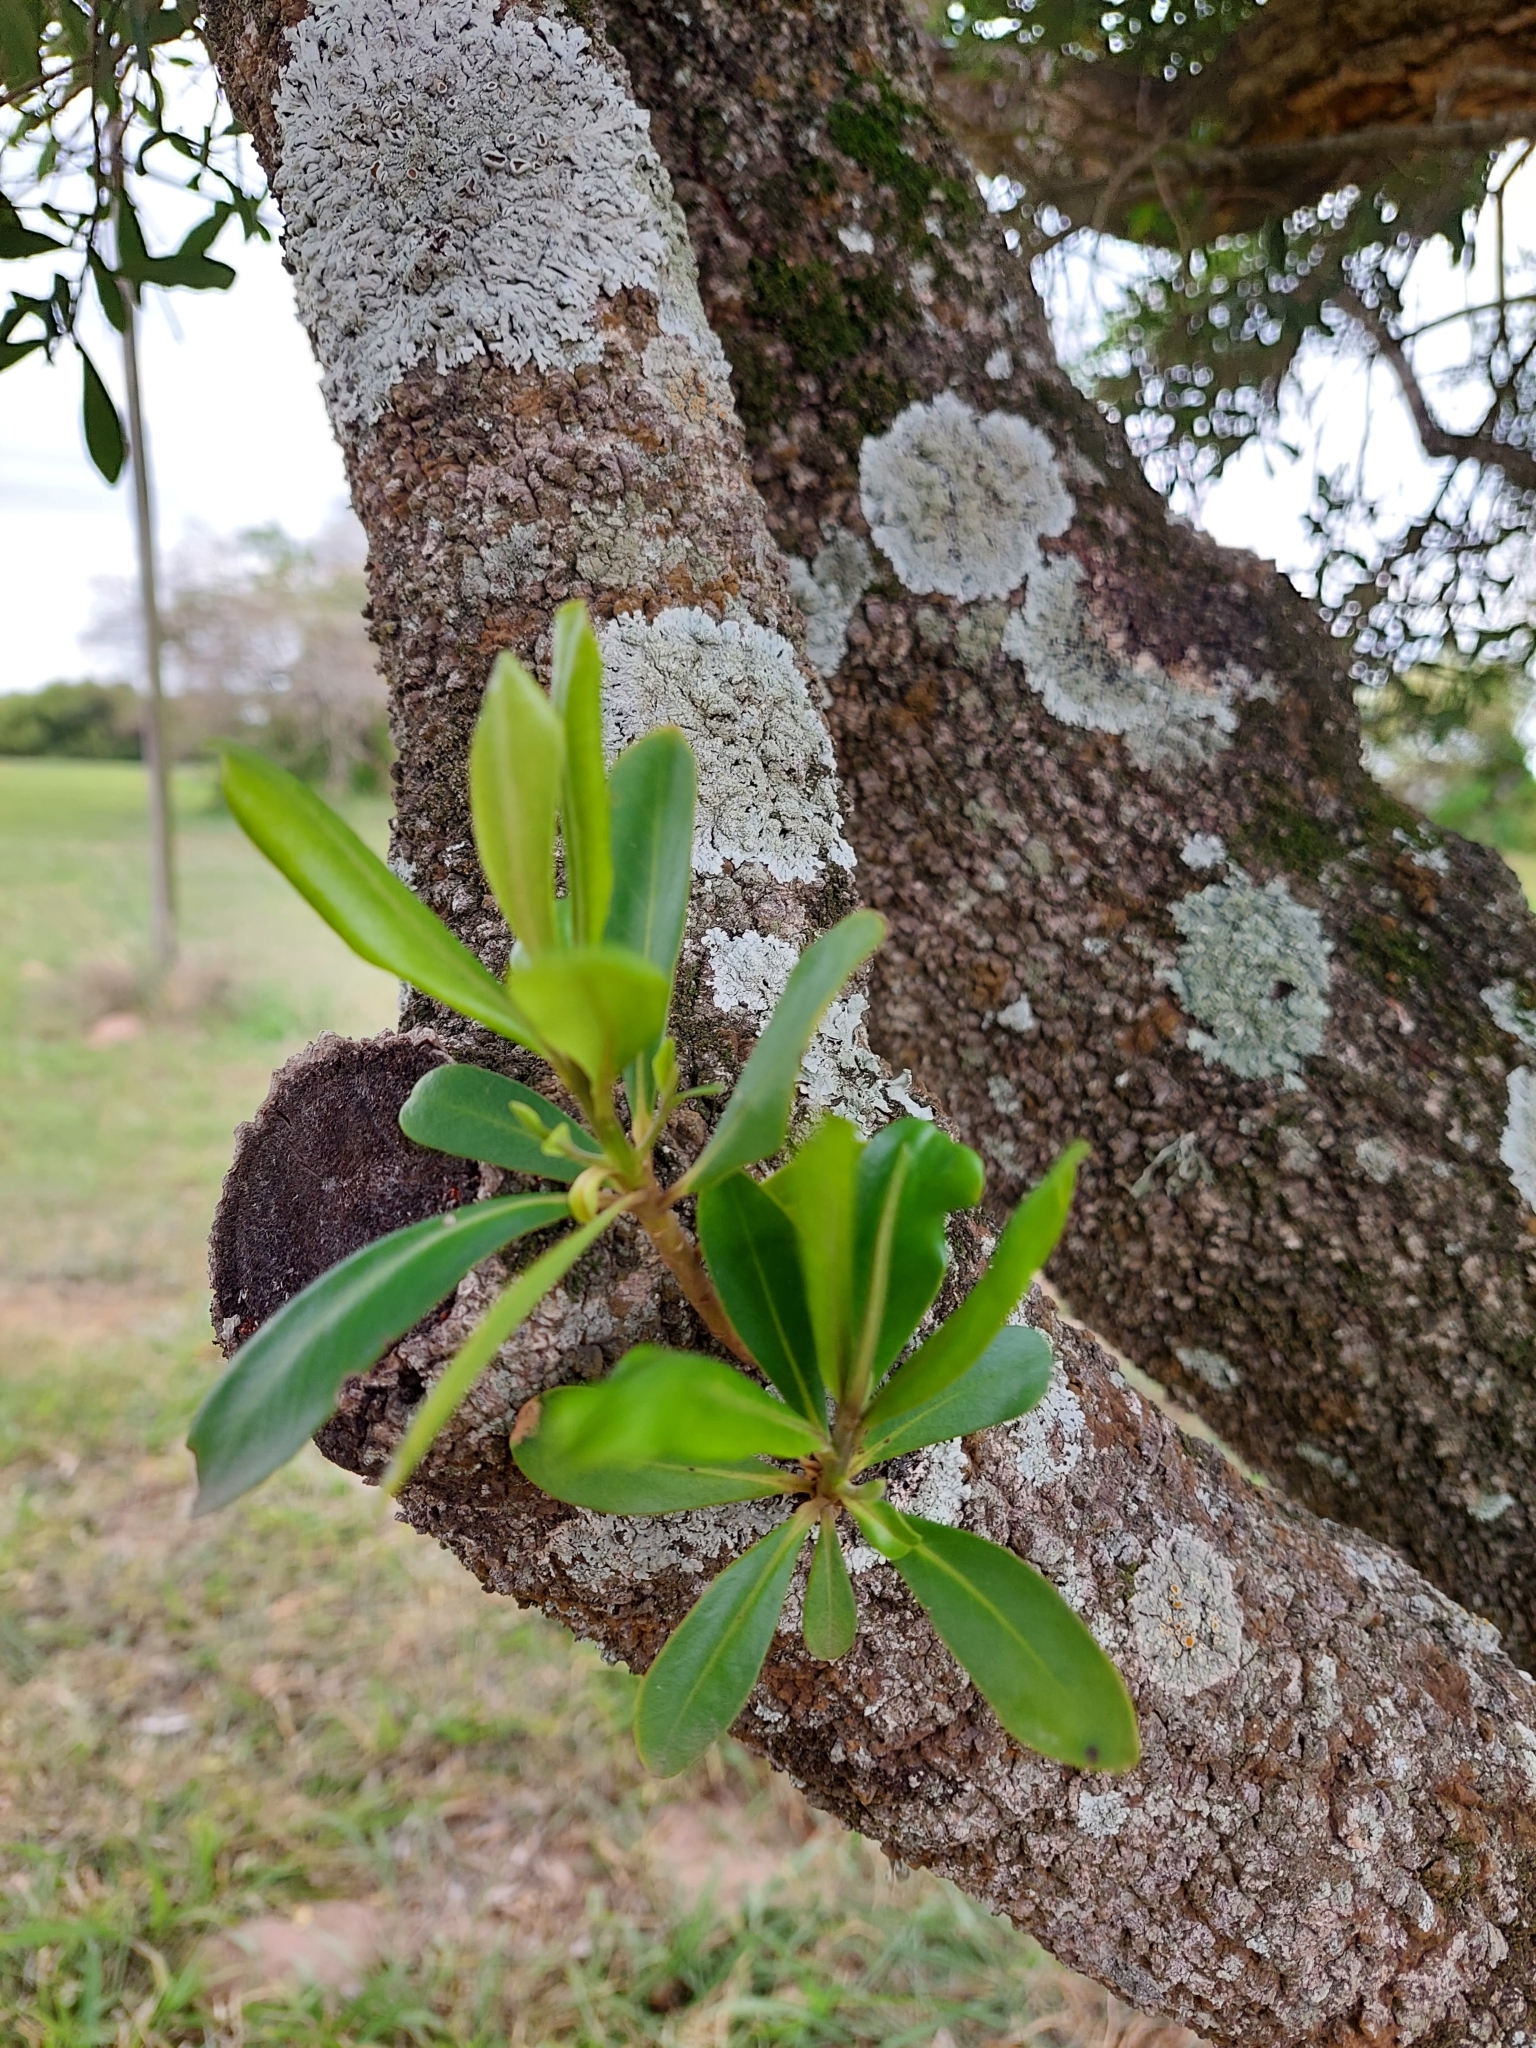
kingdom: Plantae
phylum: Tracheophyta
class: Magnoliopsida
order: Ericales
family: Primulaceae
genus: Myrsine
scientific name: Myrsine laetevirens
